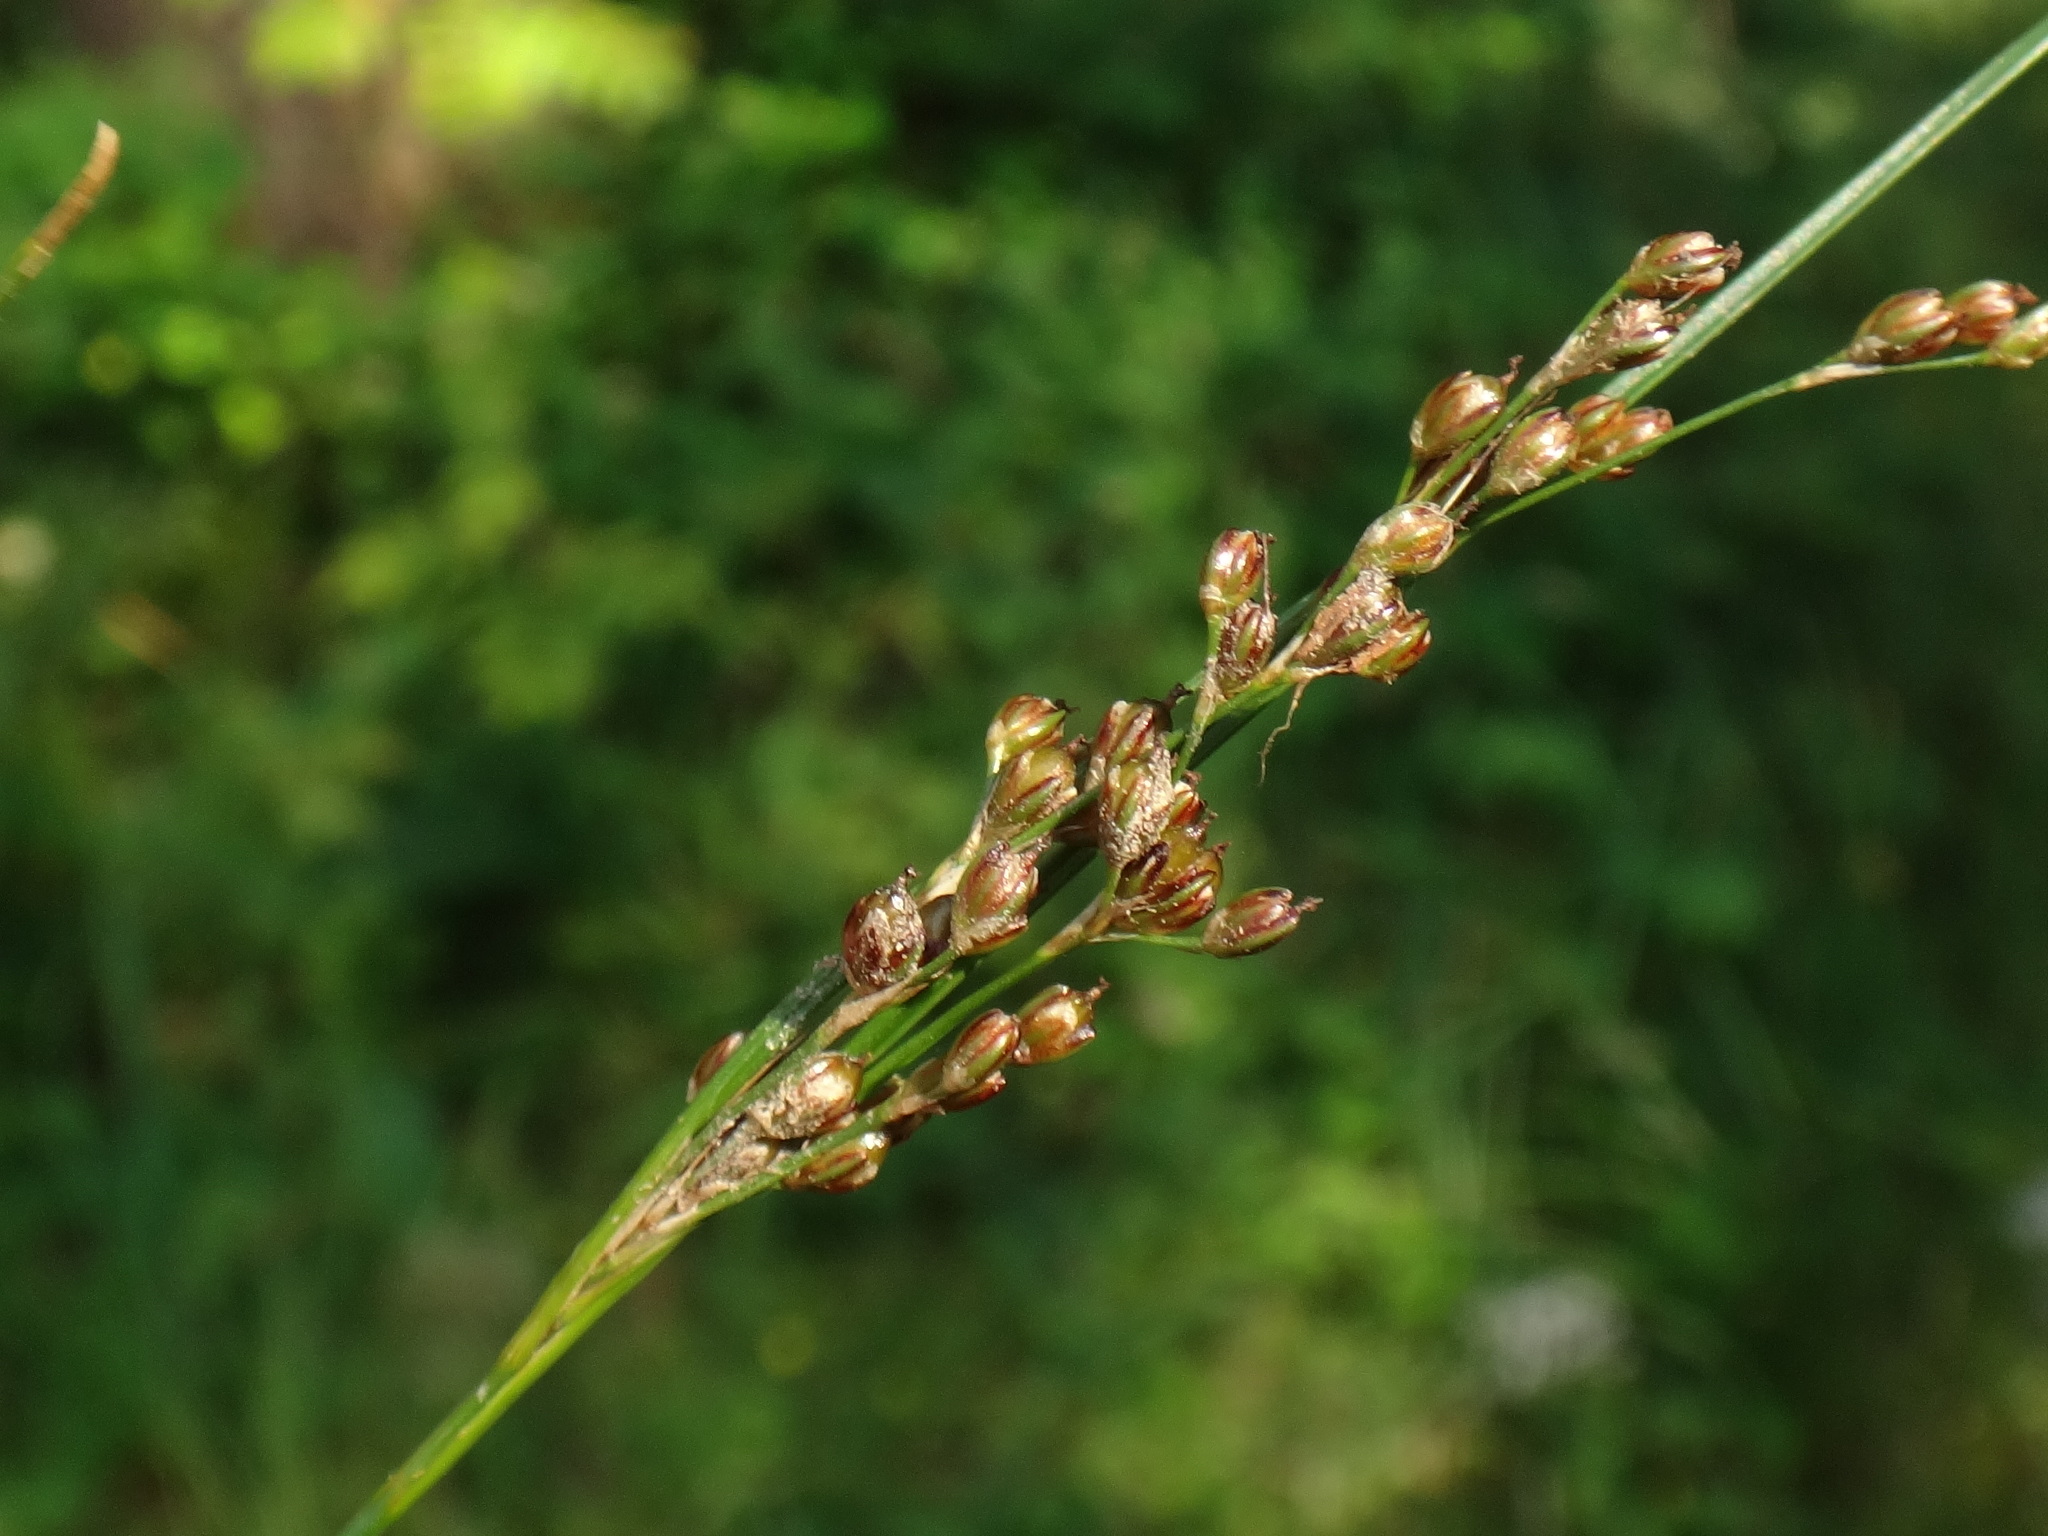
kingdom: Plantae
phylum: Tracheophyta
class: Liliopsida
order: Poales
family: Juncaceae
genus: Juncus
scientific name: Juncus compressus
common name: Round-fruited rush
